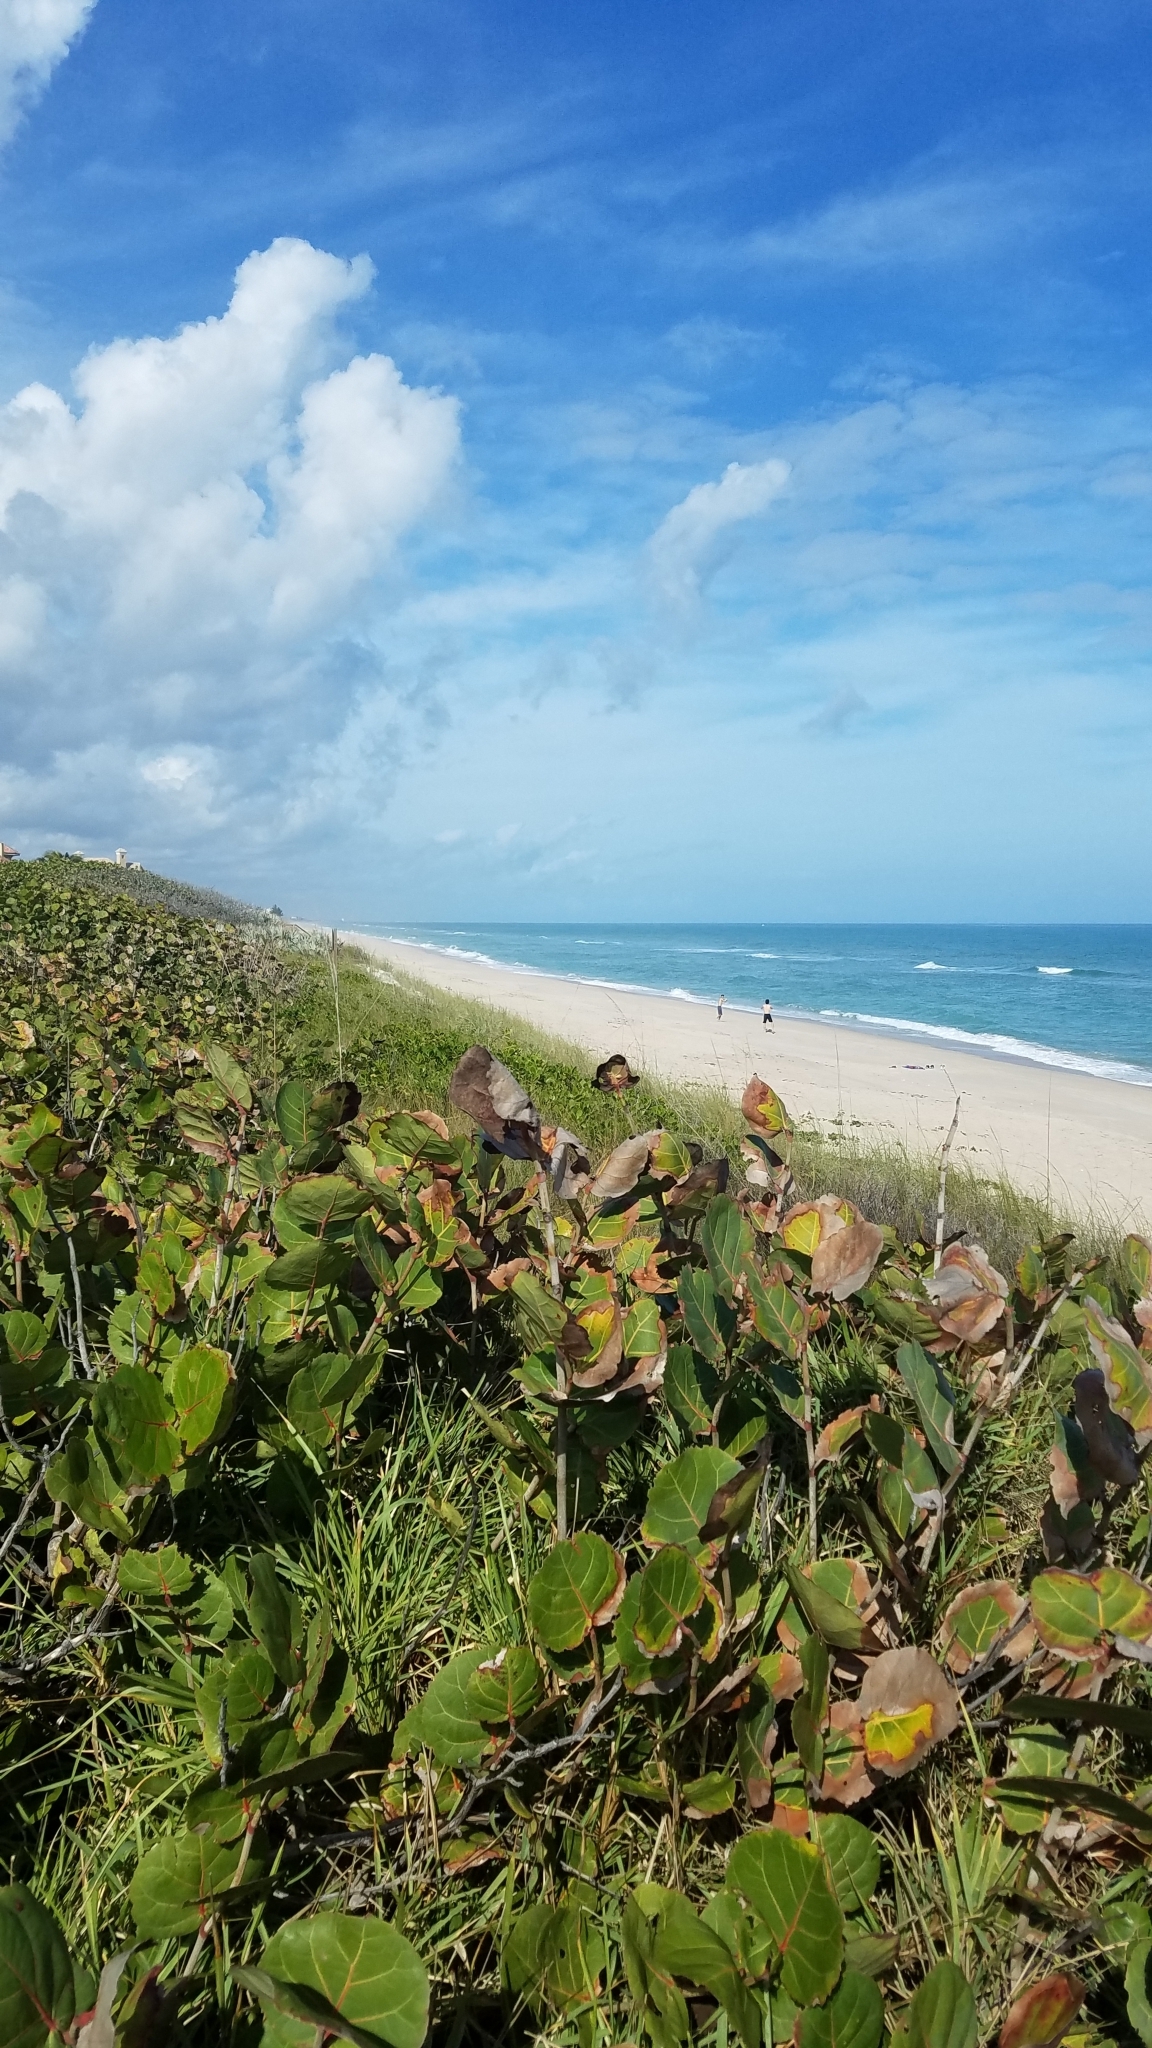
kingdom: Plantae
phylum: Tracheophyta
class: Magnoliopsida
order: Caryophyllales
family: Polygonaceae
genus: Coccoloba
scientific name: Coccoloba uvifera
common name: Seagrape
